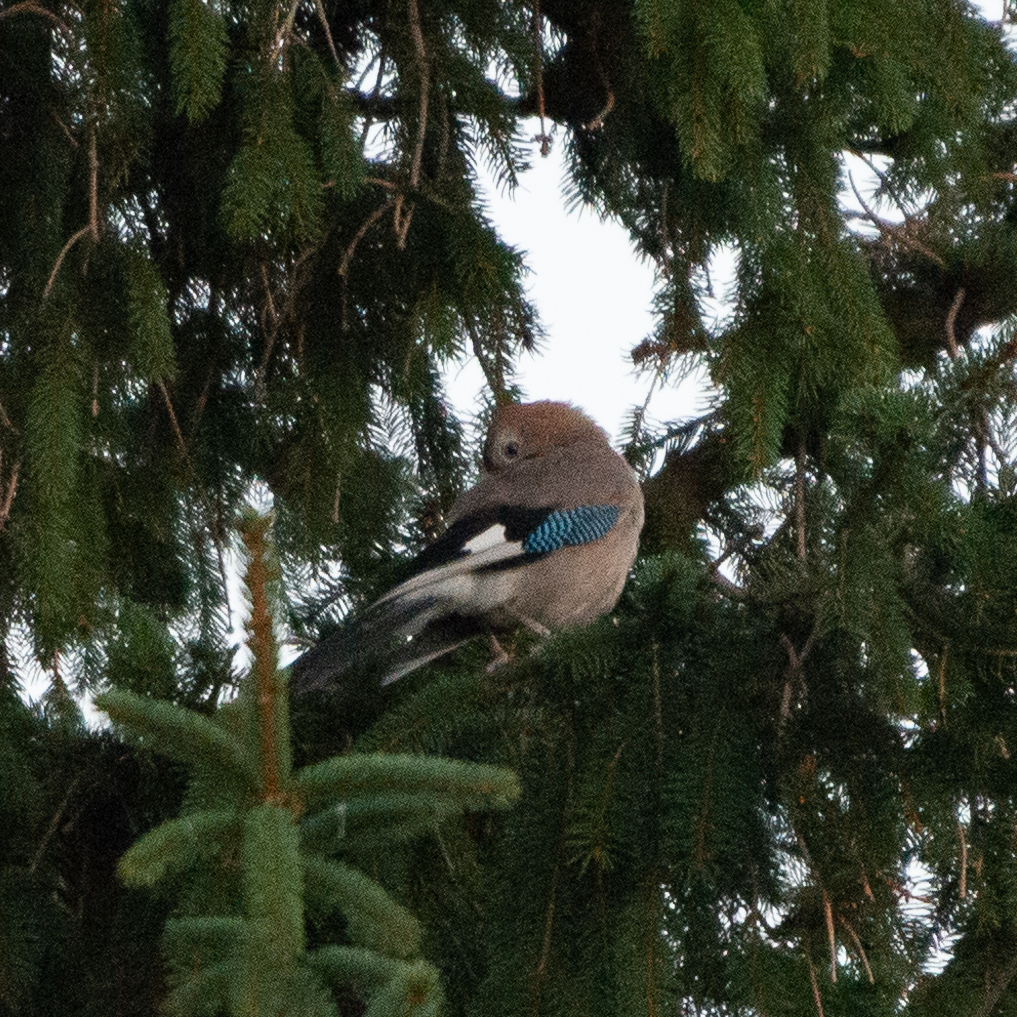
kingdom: Animalia
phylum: Chordata
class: Aves
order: Passeriformes
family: Corvidae
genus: Garrulus
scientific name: Garrulus glandarius
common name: Eurasian jay
